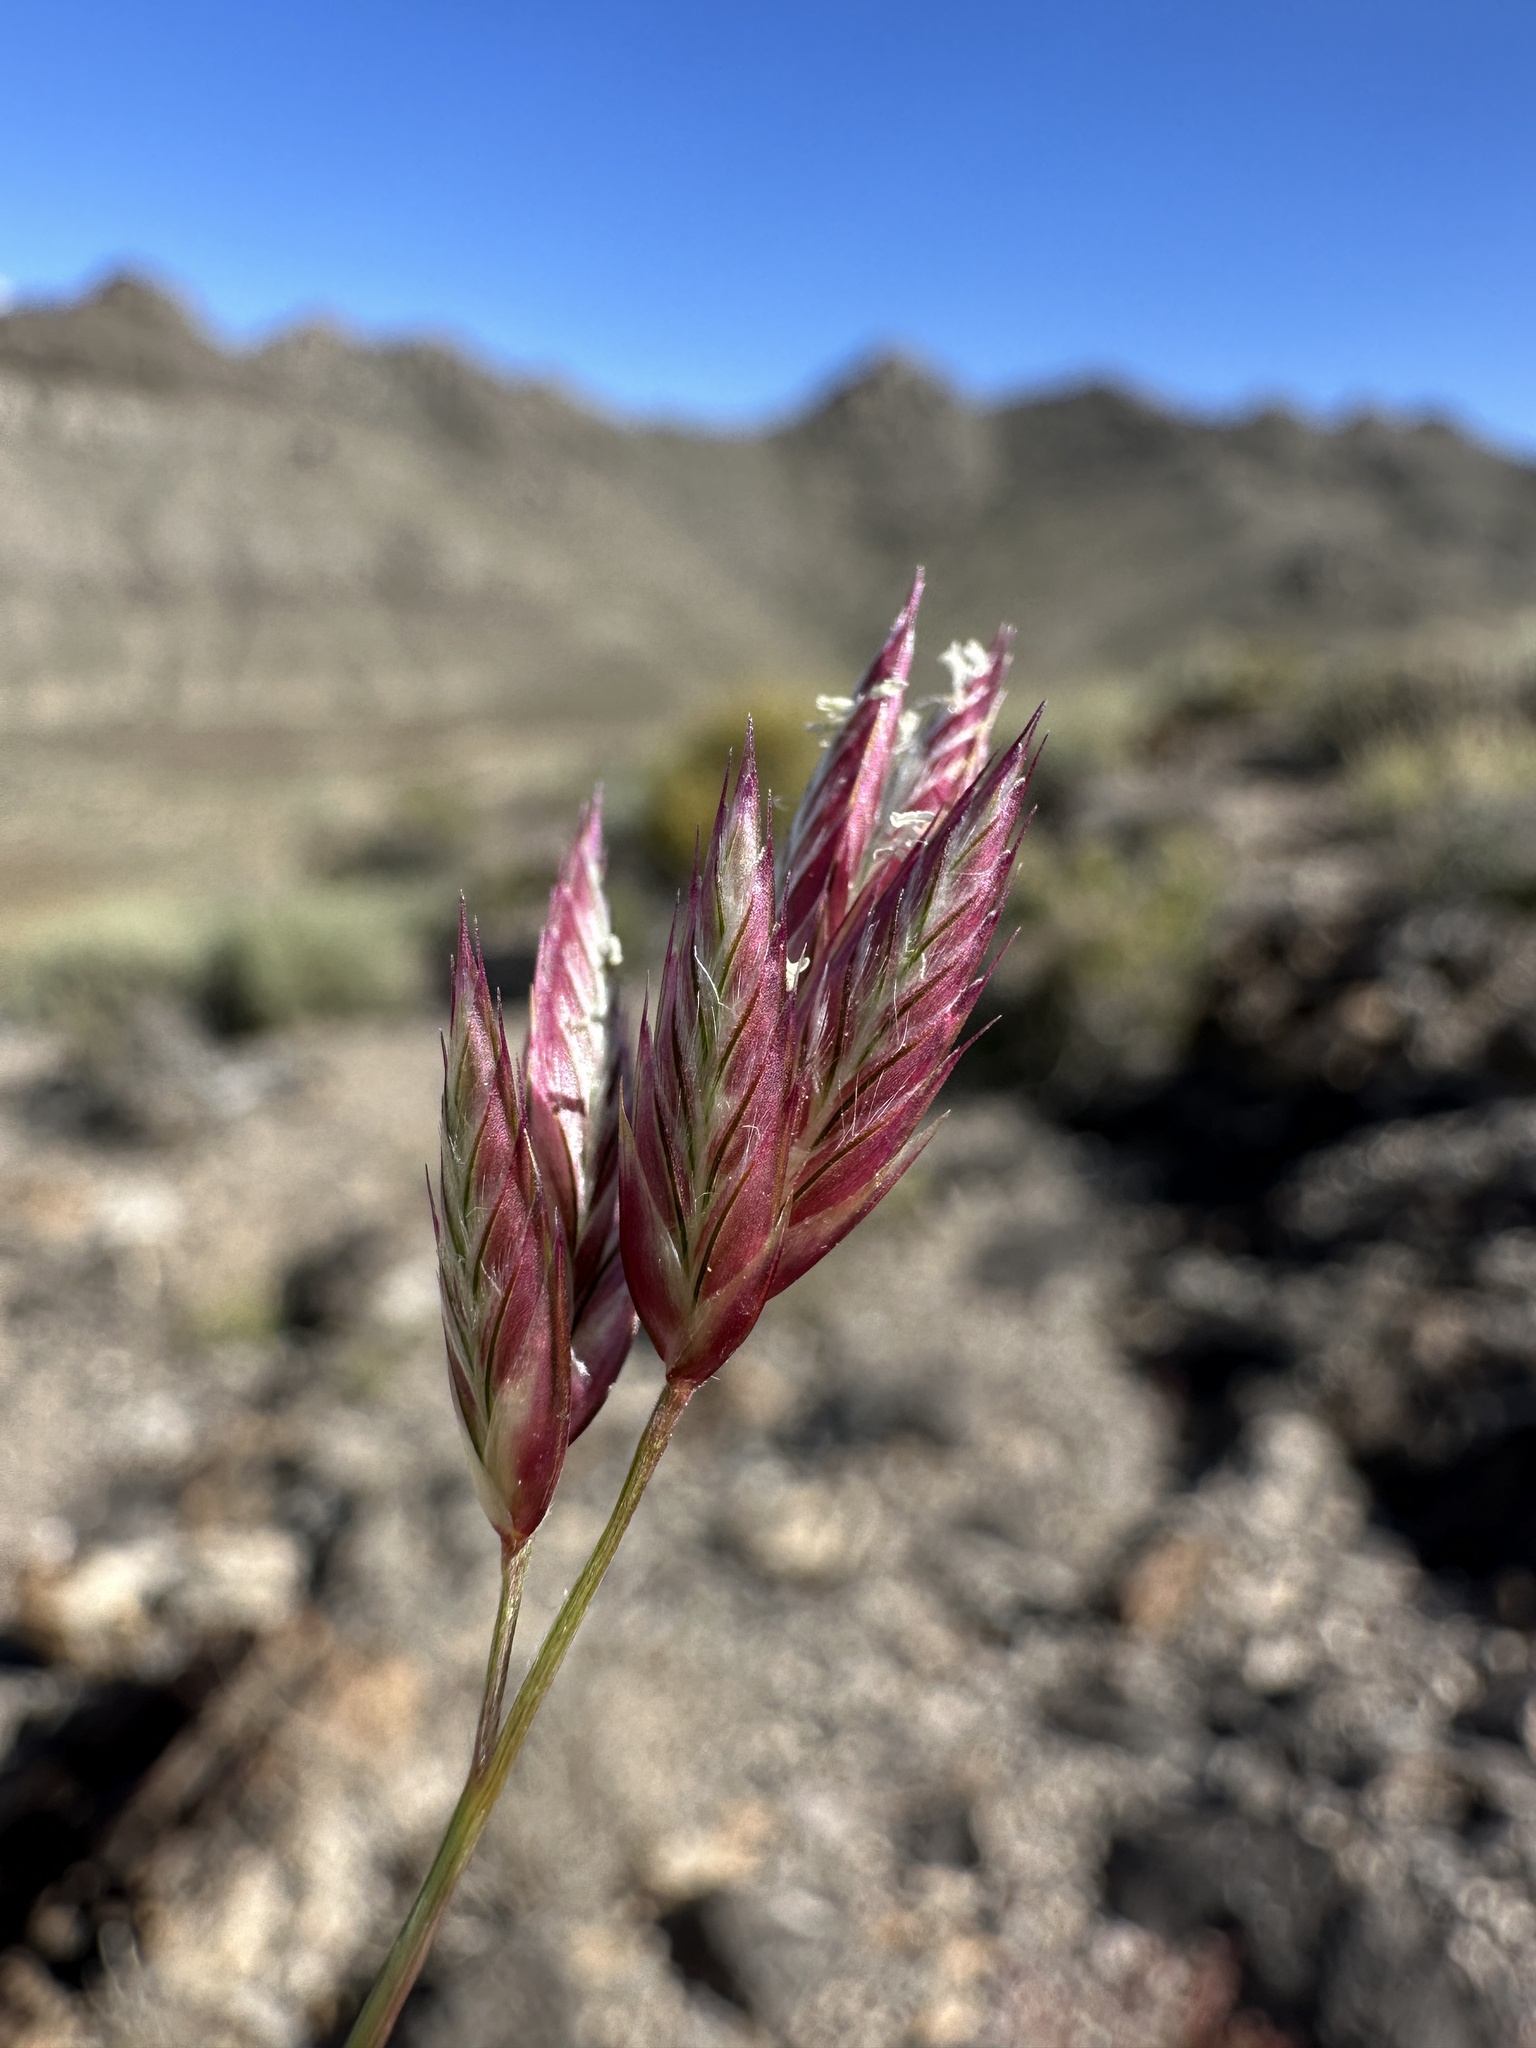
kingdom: Plantae
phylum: Tracheophyta
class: Liliopsida
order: Poales
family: Poaceae
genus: Erioneuron
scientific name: Erioneuron pilosum
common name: Hairy woolly grass
